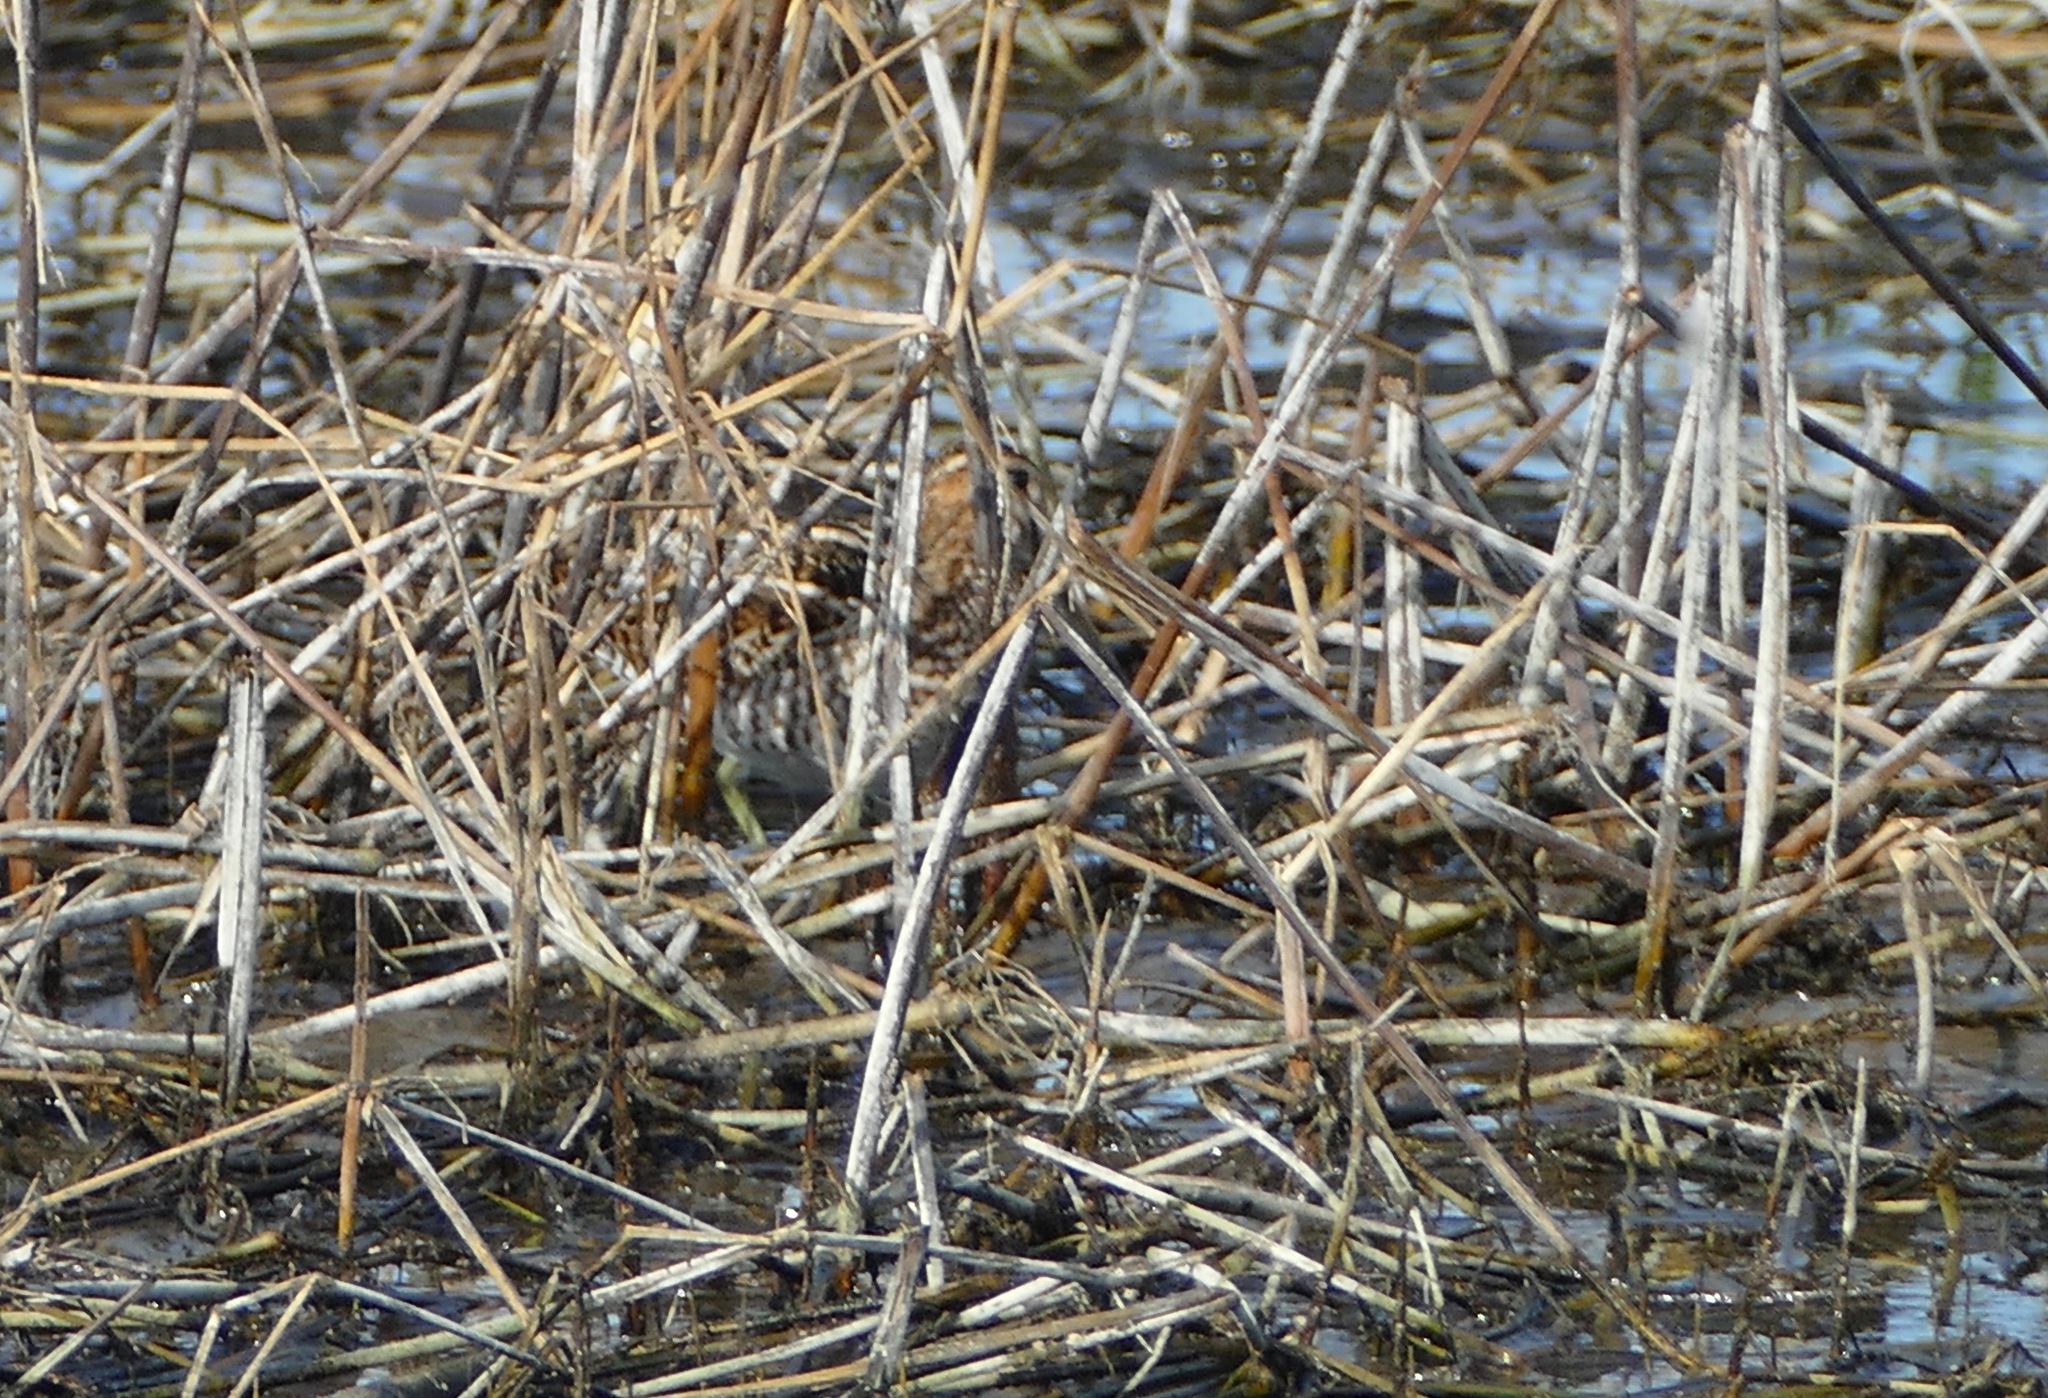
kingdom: Animalia
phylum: Chordata
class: Aves
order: Charadriiformes
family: Scolopacidae
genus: Gallinago
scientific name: Gallinago delicata
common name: Wilson's snipe
